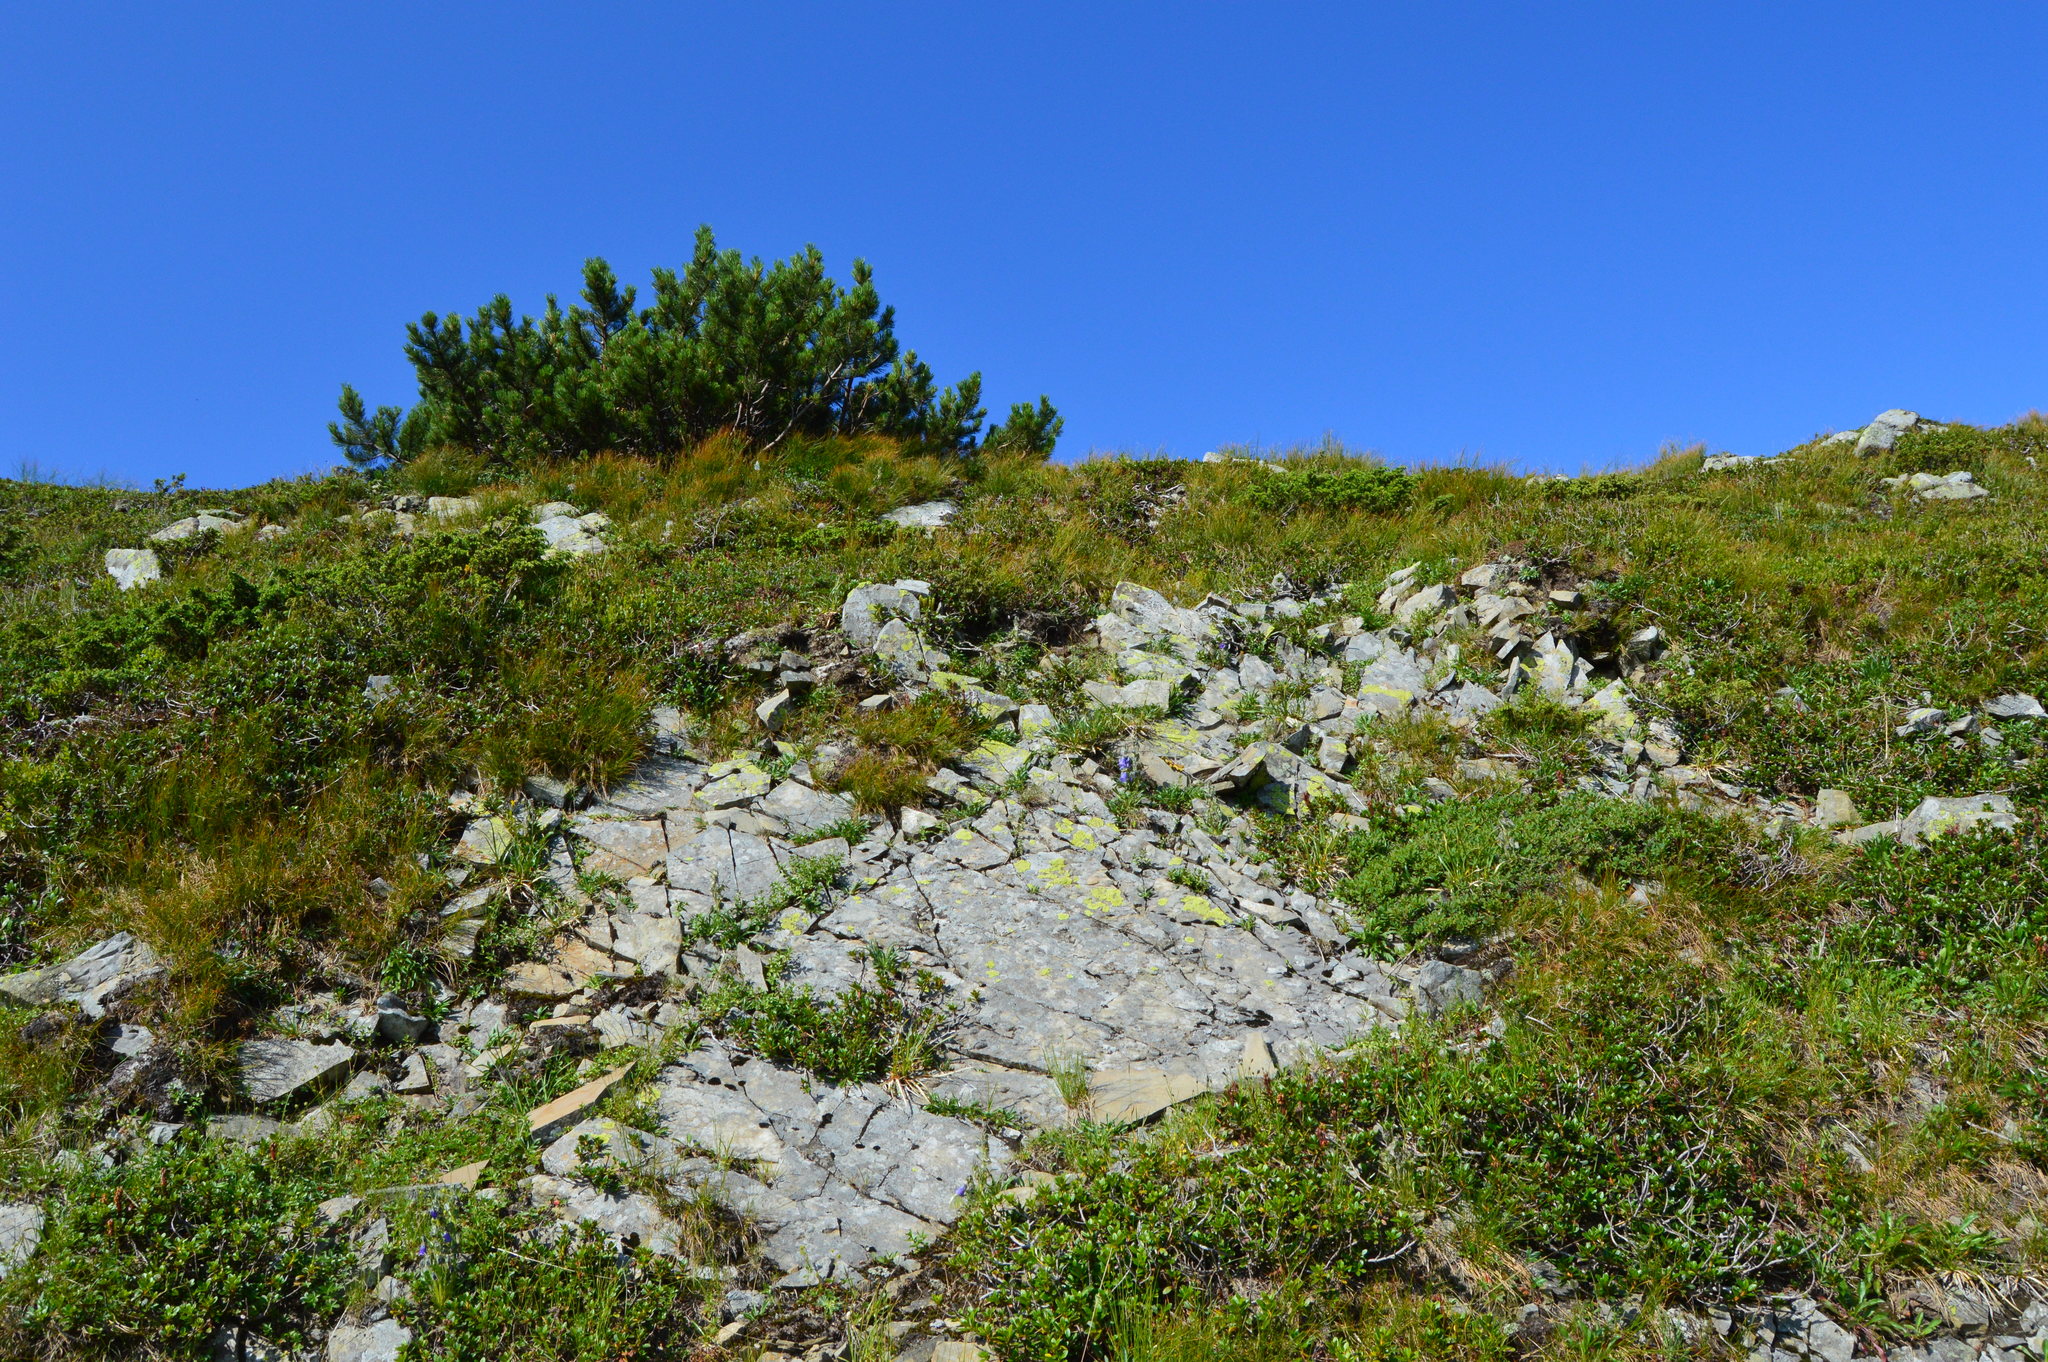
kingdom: Plantae
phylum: Tracheophyta
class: Pinopsida
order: Pinales
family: Pinaceae
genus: Pinus
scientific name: Pinus mugo
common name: Mugo pine
